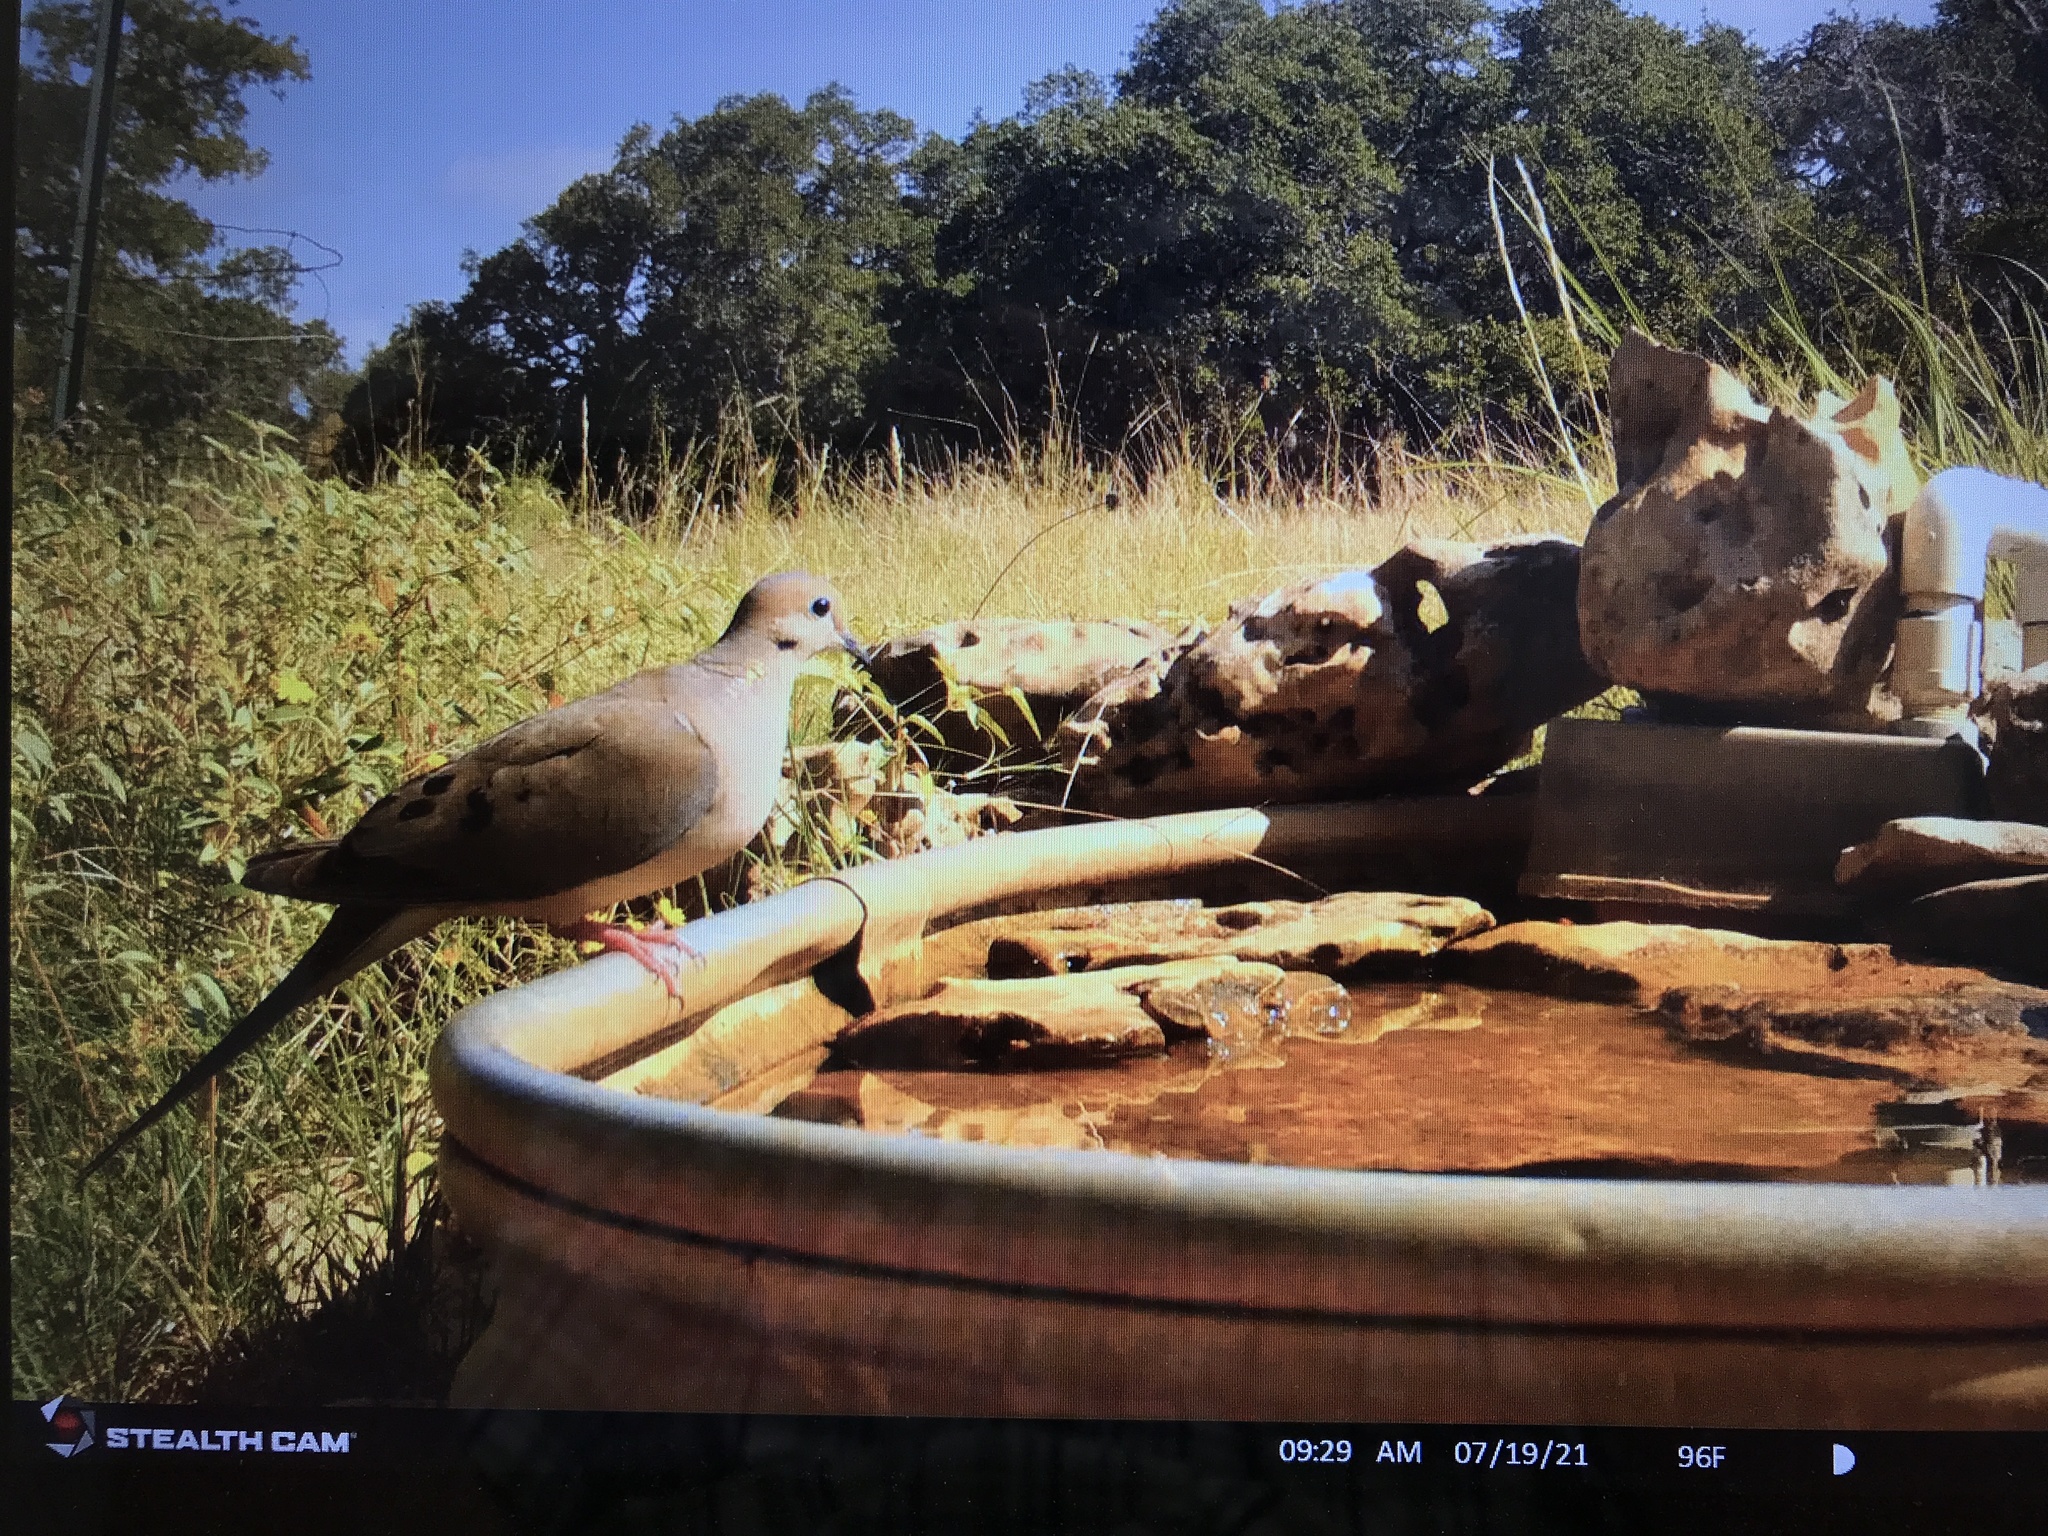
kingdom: Animalia
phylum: Chordata
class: Aves
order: Columbiformes
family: Columbidae
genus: Zenaida
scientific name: Zenaida macroura
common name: Mourning dove
